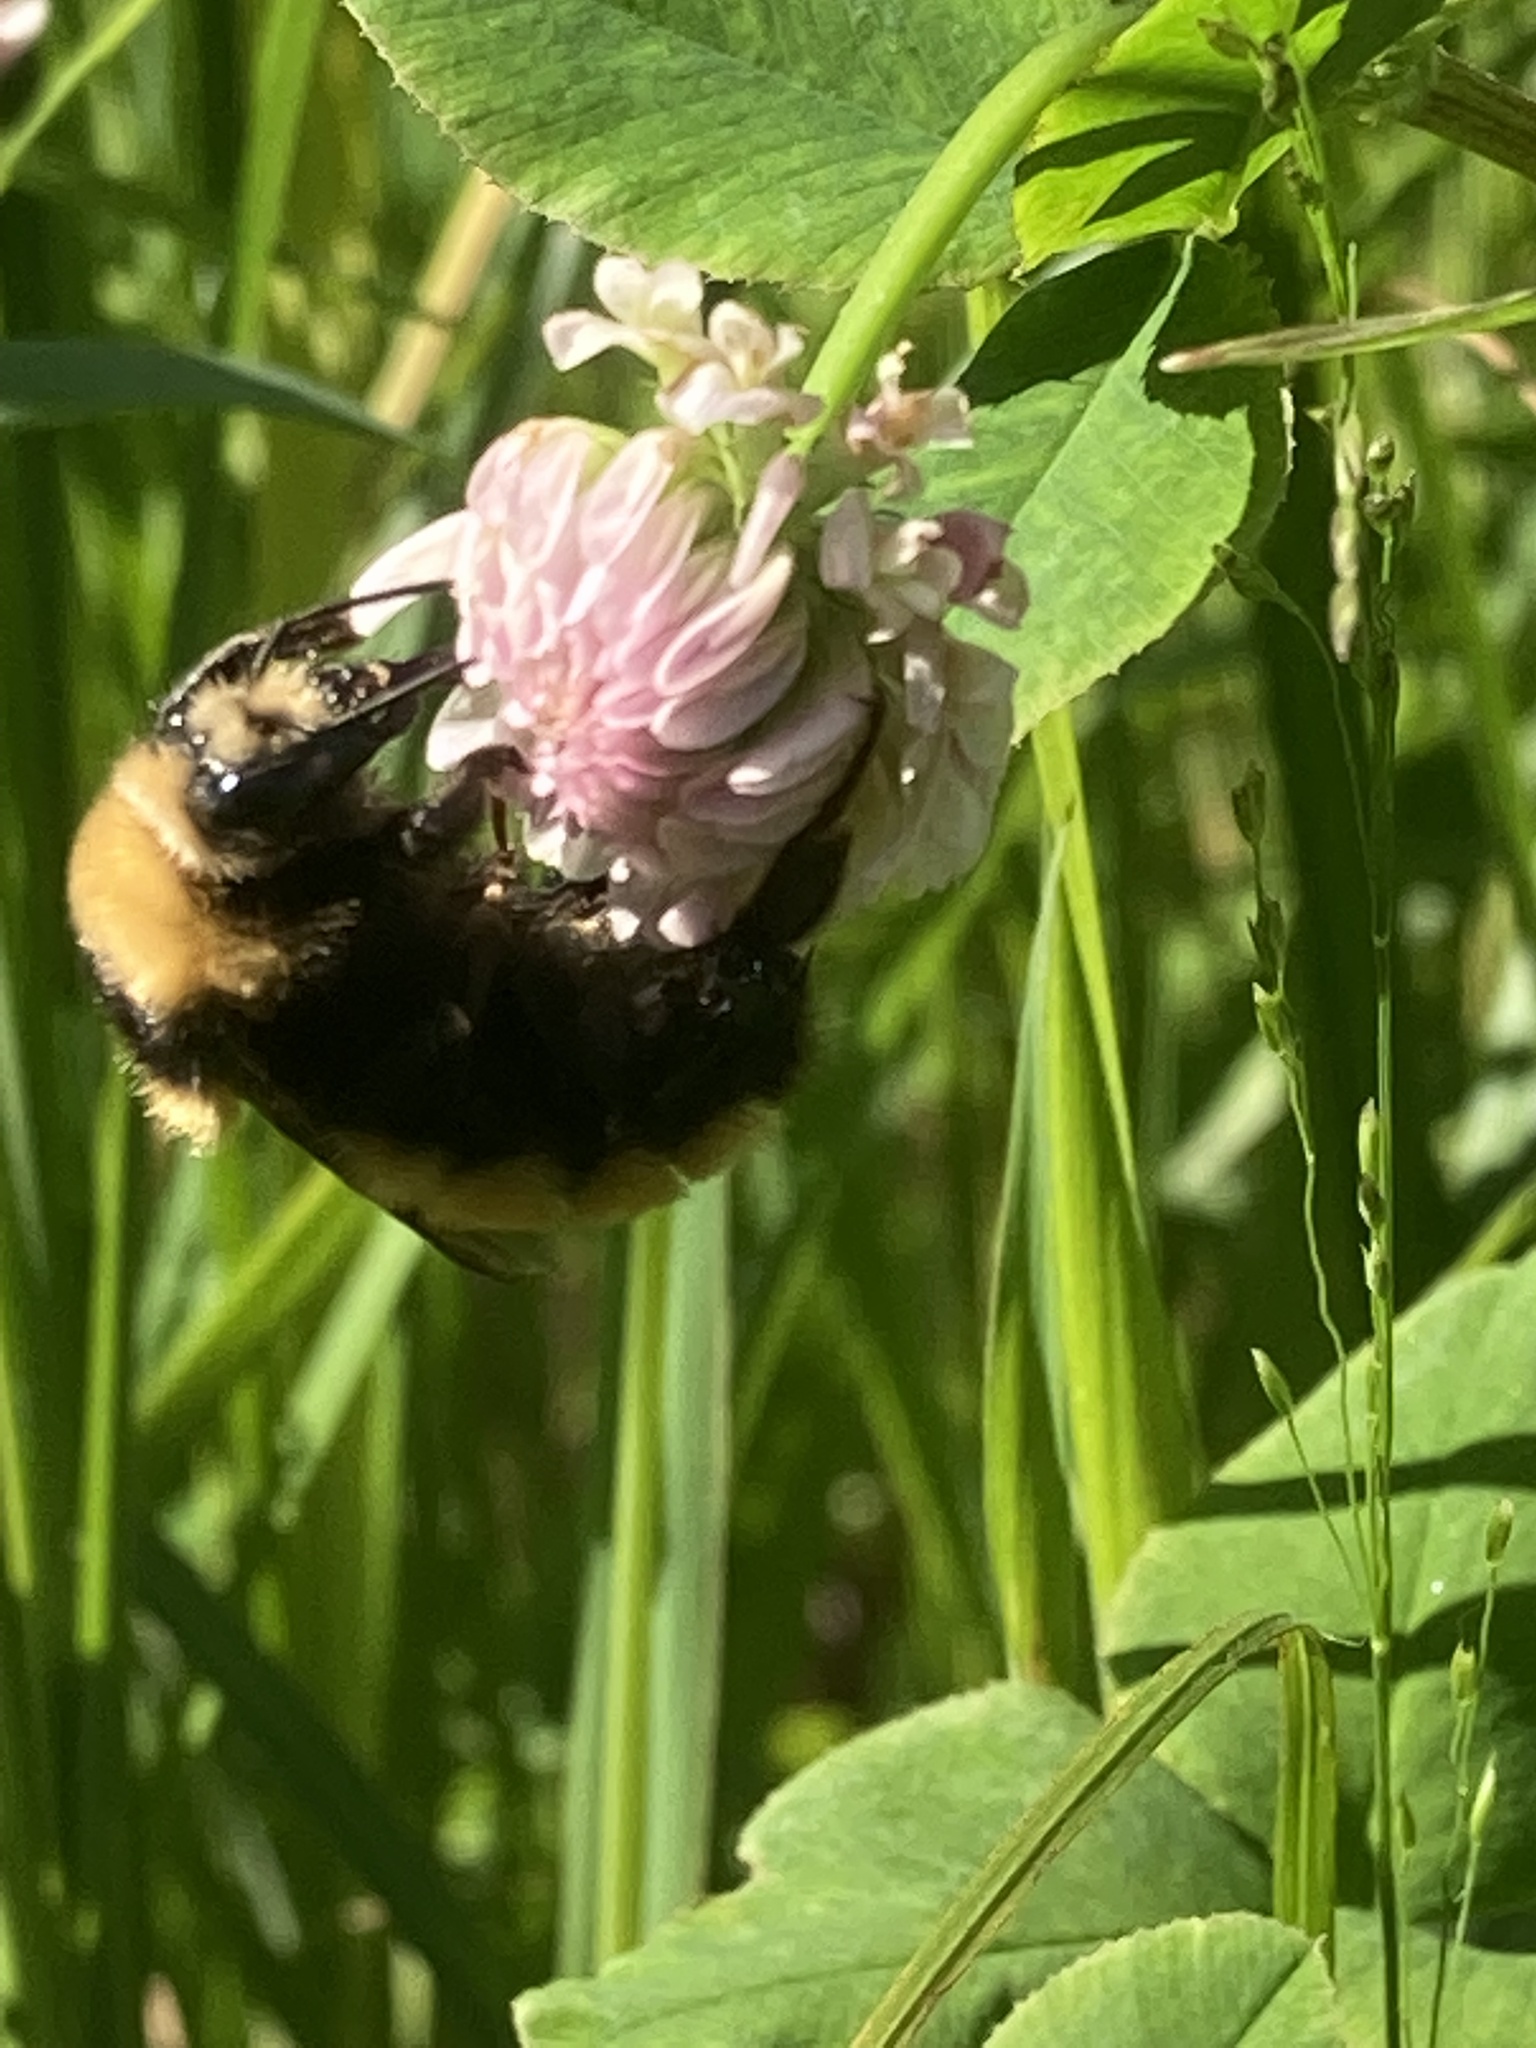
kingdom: Animalia
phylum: Arthropoda
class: Insecta
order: Hymenoptera
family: Apidae
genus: Bombus
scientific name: Bombus borealis
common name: Northern amber bumble bee
